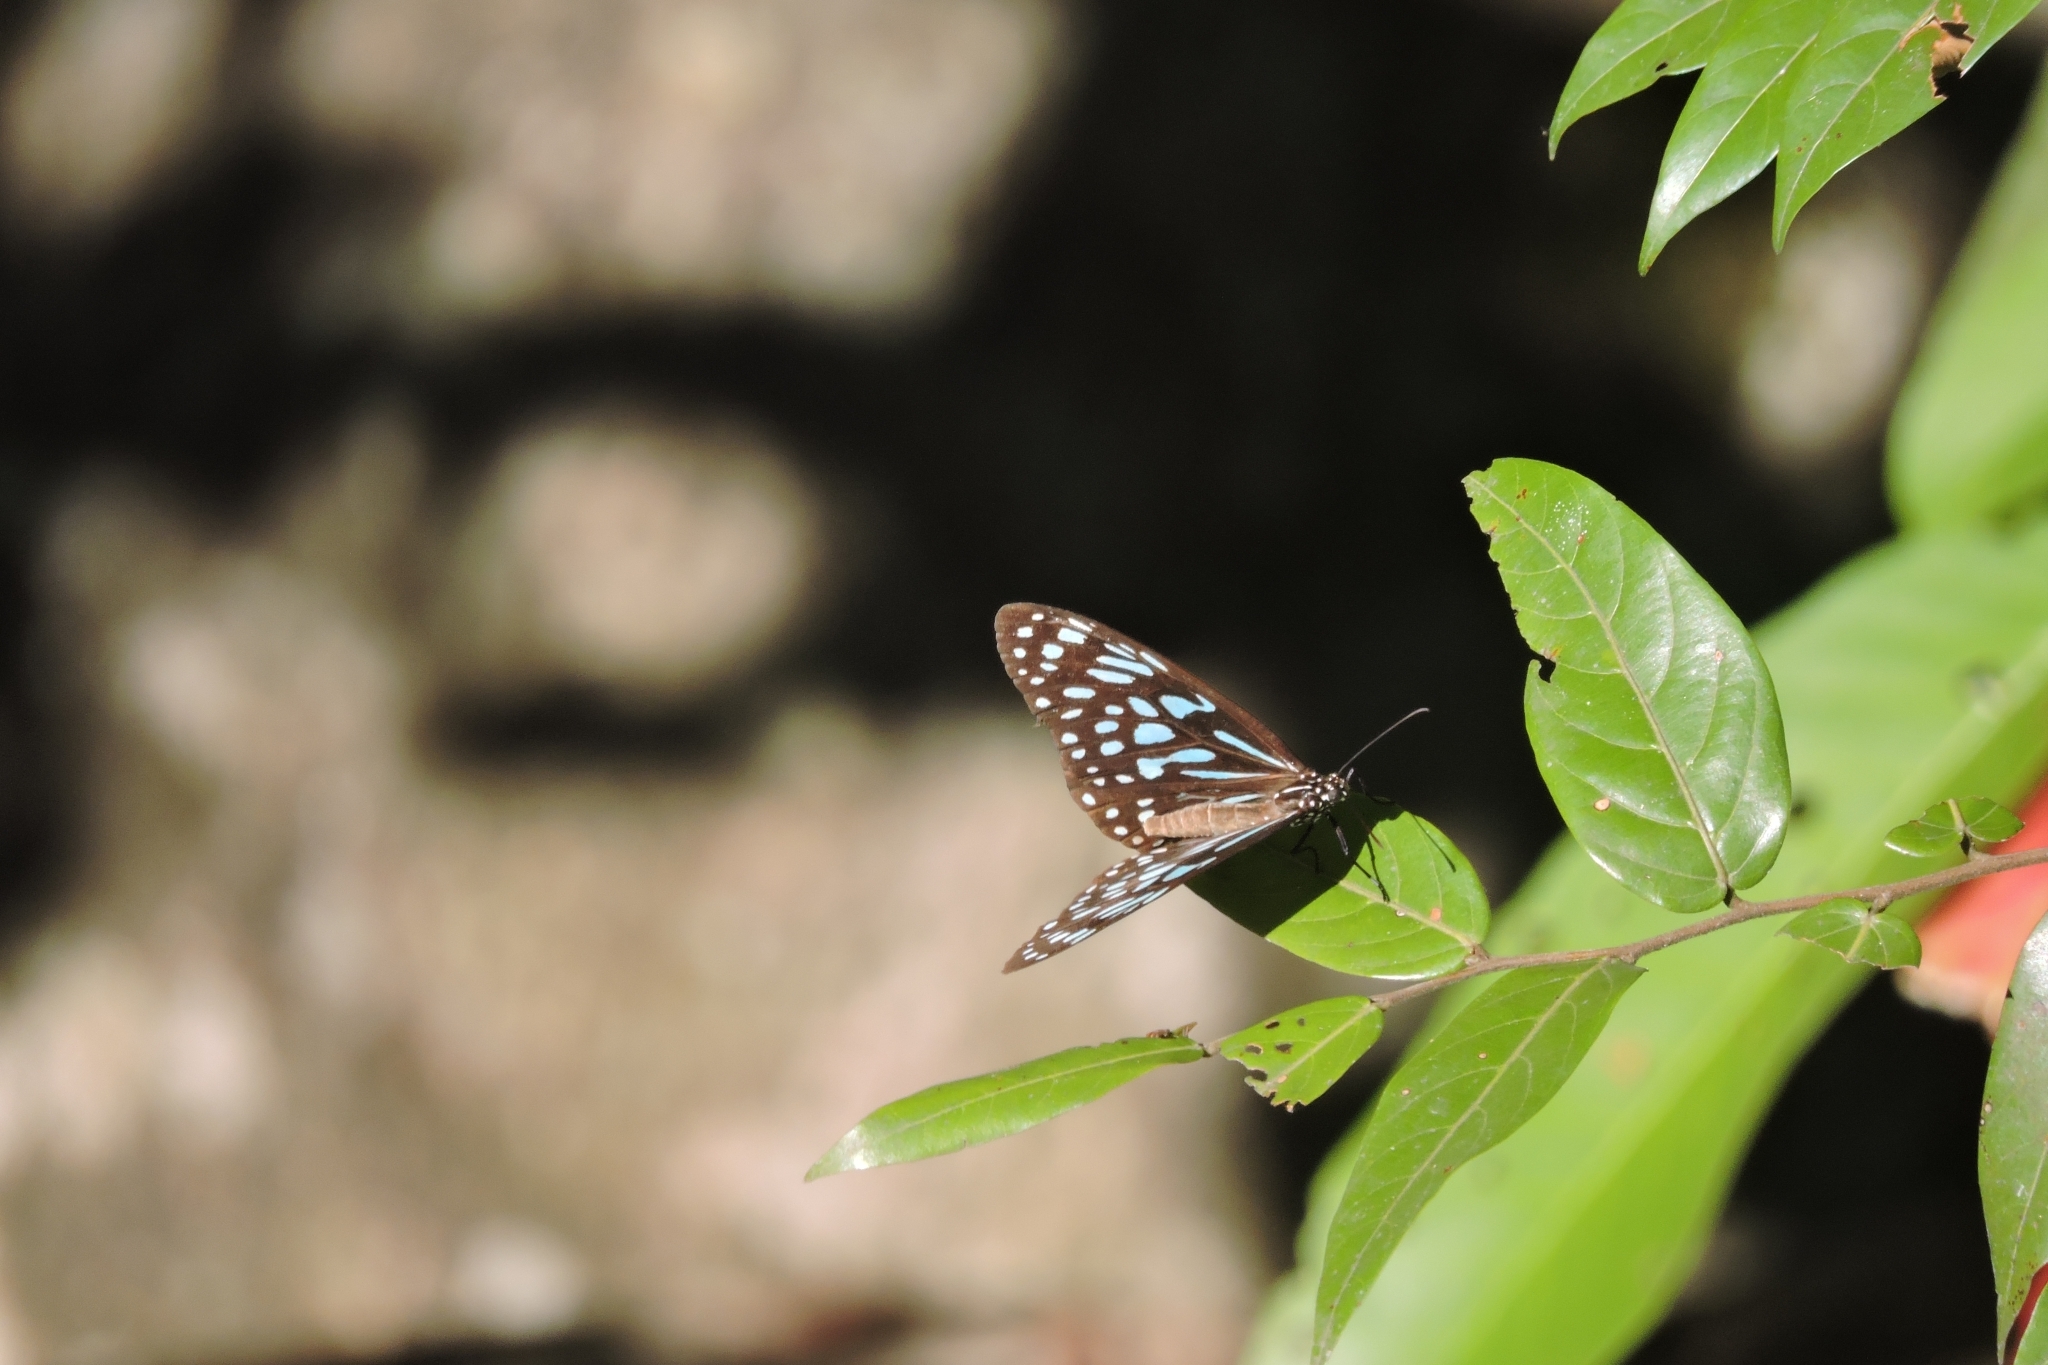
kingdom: Animalia
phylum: Arthropoda
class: Insecta
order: Lepidoptera
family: Nymphalidae
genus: Tirumala
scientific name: Tirumala limniace
